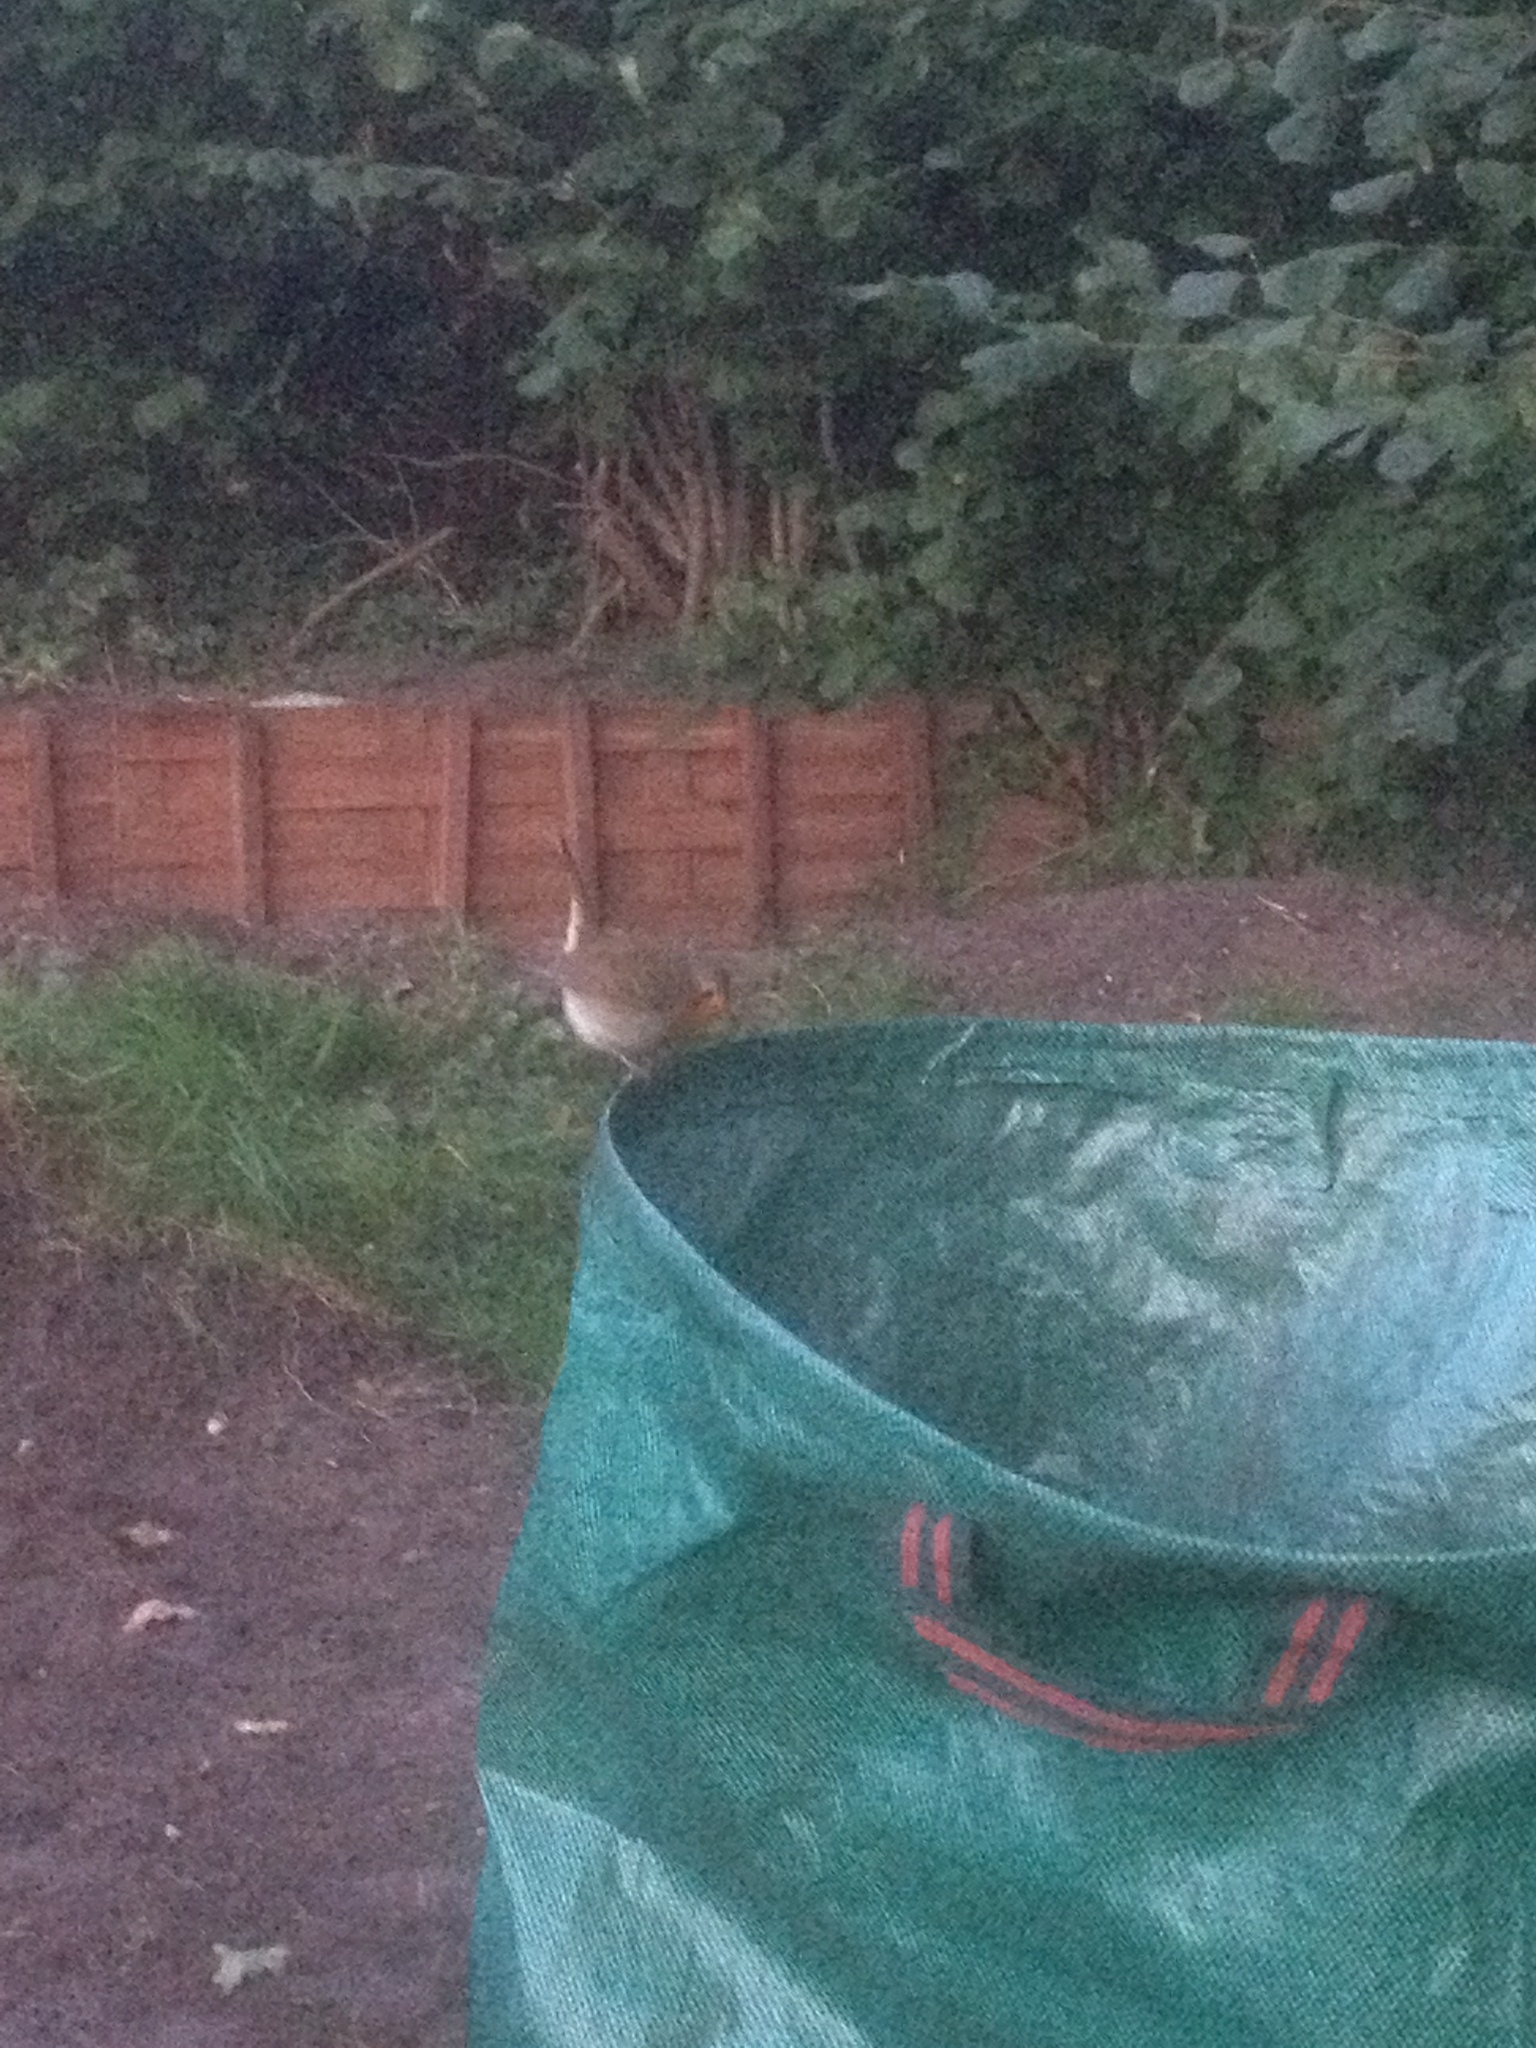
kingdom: Animalia
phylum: Chordata
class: Aves
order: Passeriformes
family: Muscicapidae
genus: Erithacus
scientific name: Erithacus rubecula
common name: European robin
